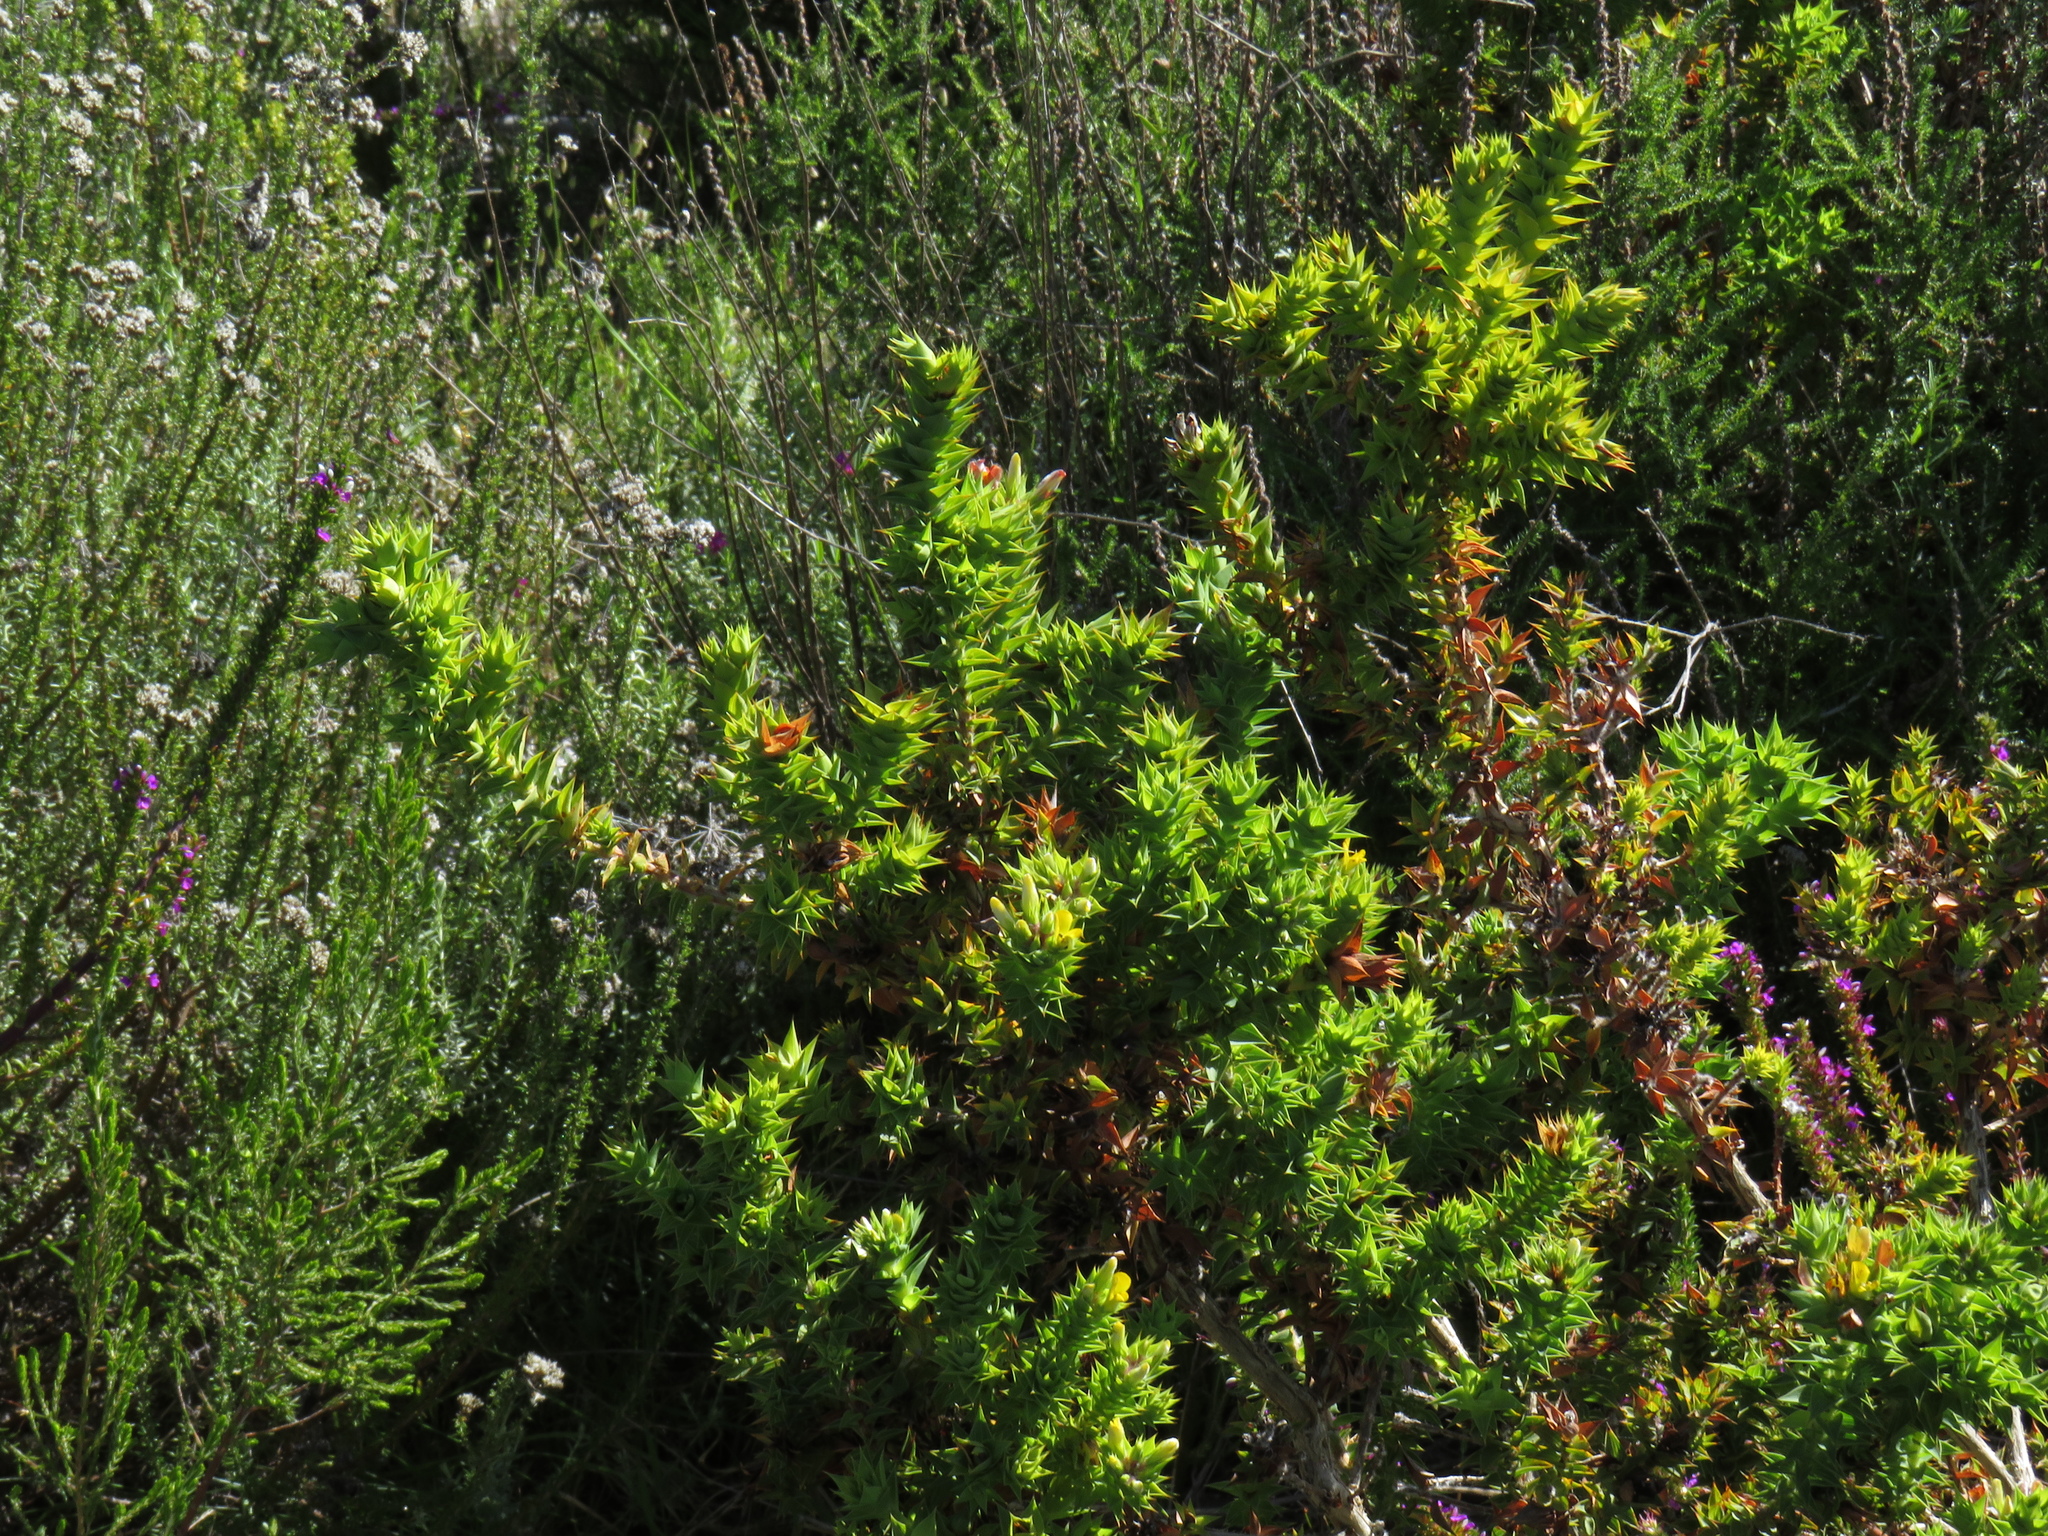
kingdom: Plantae
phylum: Tracheophyta
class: Magnoliopsida
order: Fabales
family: Fabaceae
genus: Aspalathus
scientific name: Aspalathus cordata
